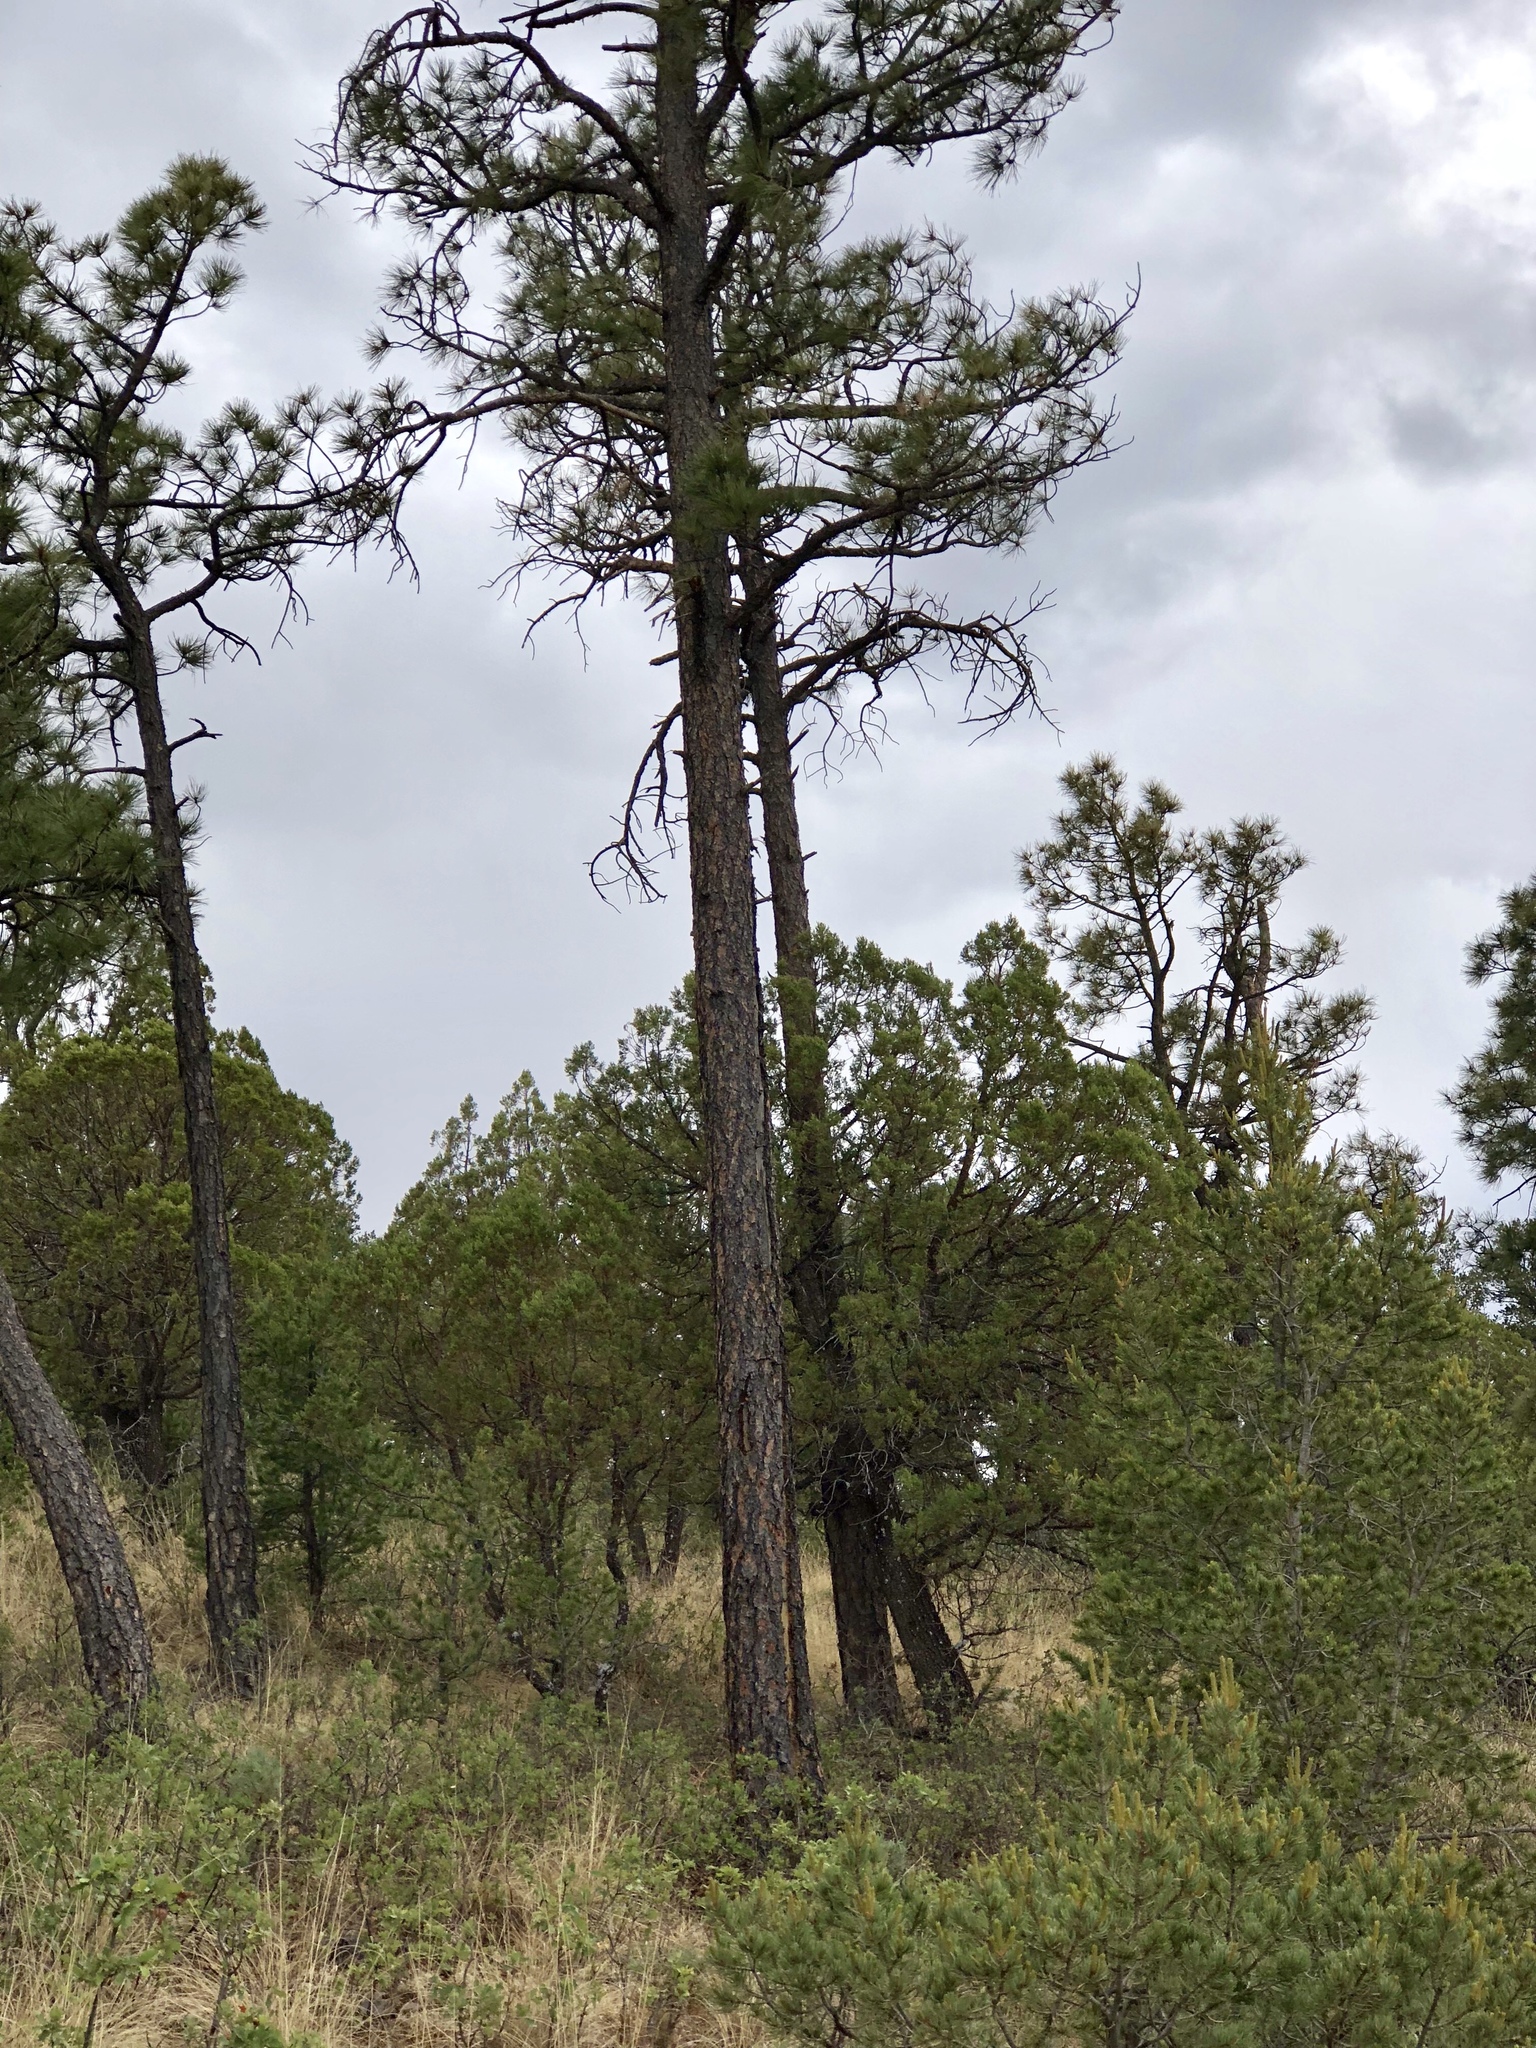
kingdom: Plantae
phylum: Tracheophyta
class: Pinopsida
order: Pinales
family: Pinaceae
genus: Pinus
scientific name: Pinus ponderosa
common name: Western yellow-pine
